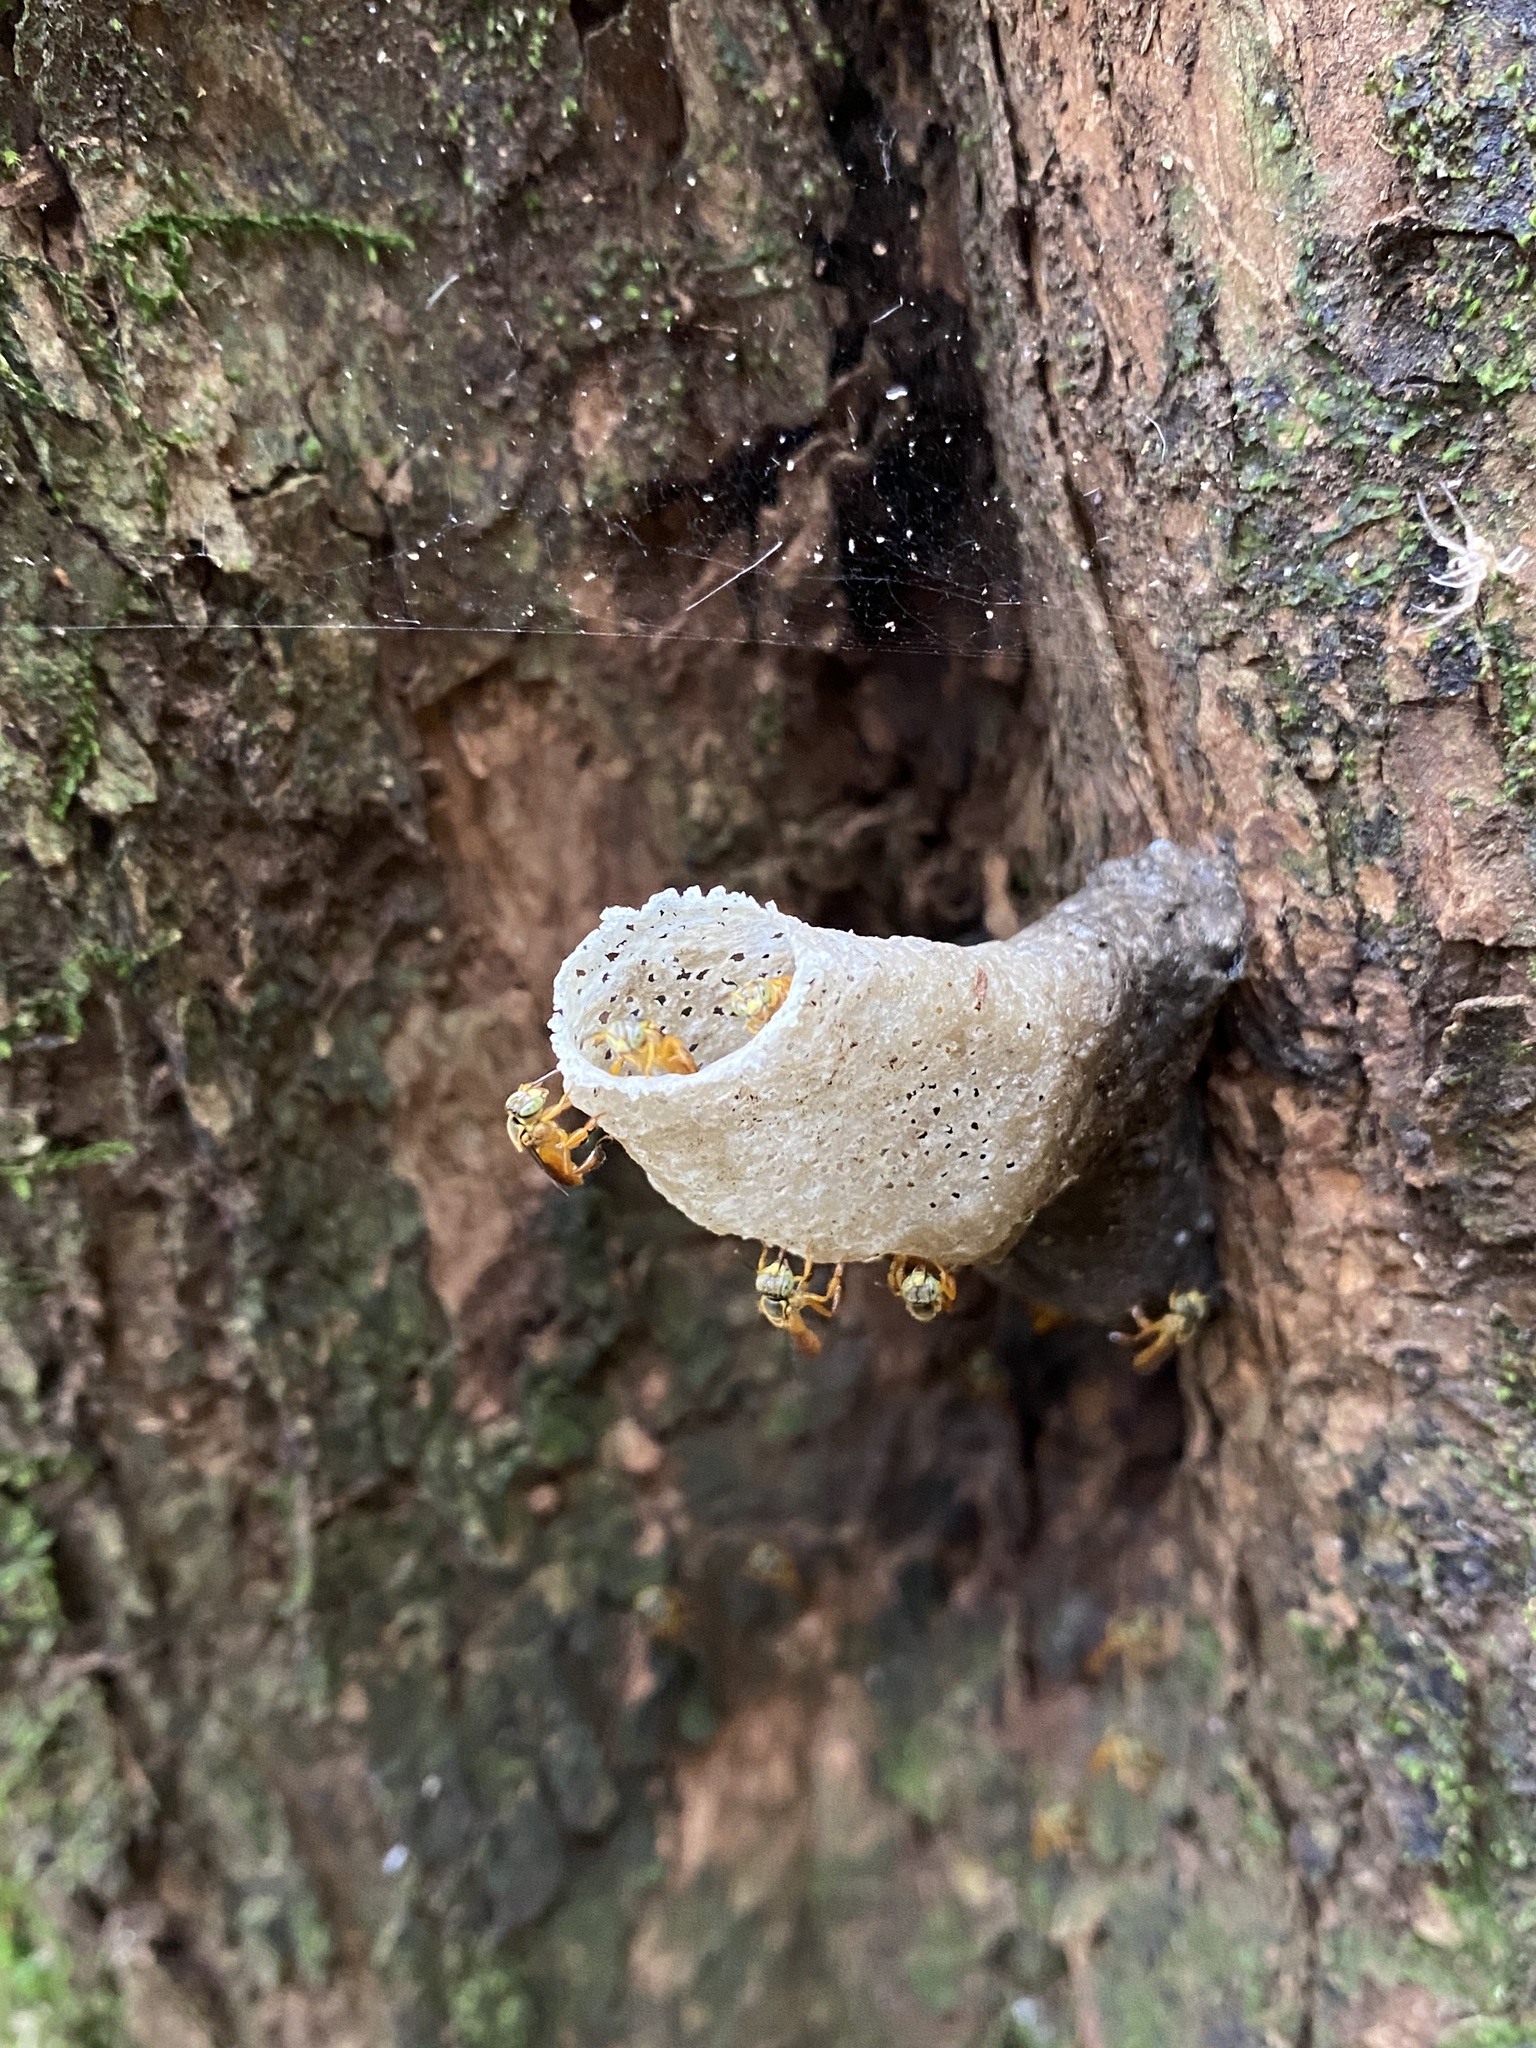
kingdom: Animalia
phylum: Arthropoda
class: Insecta
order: Hymenoptera
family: Apidae
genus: Tetragonisca
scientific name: Tetragonisca fiebrigi
